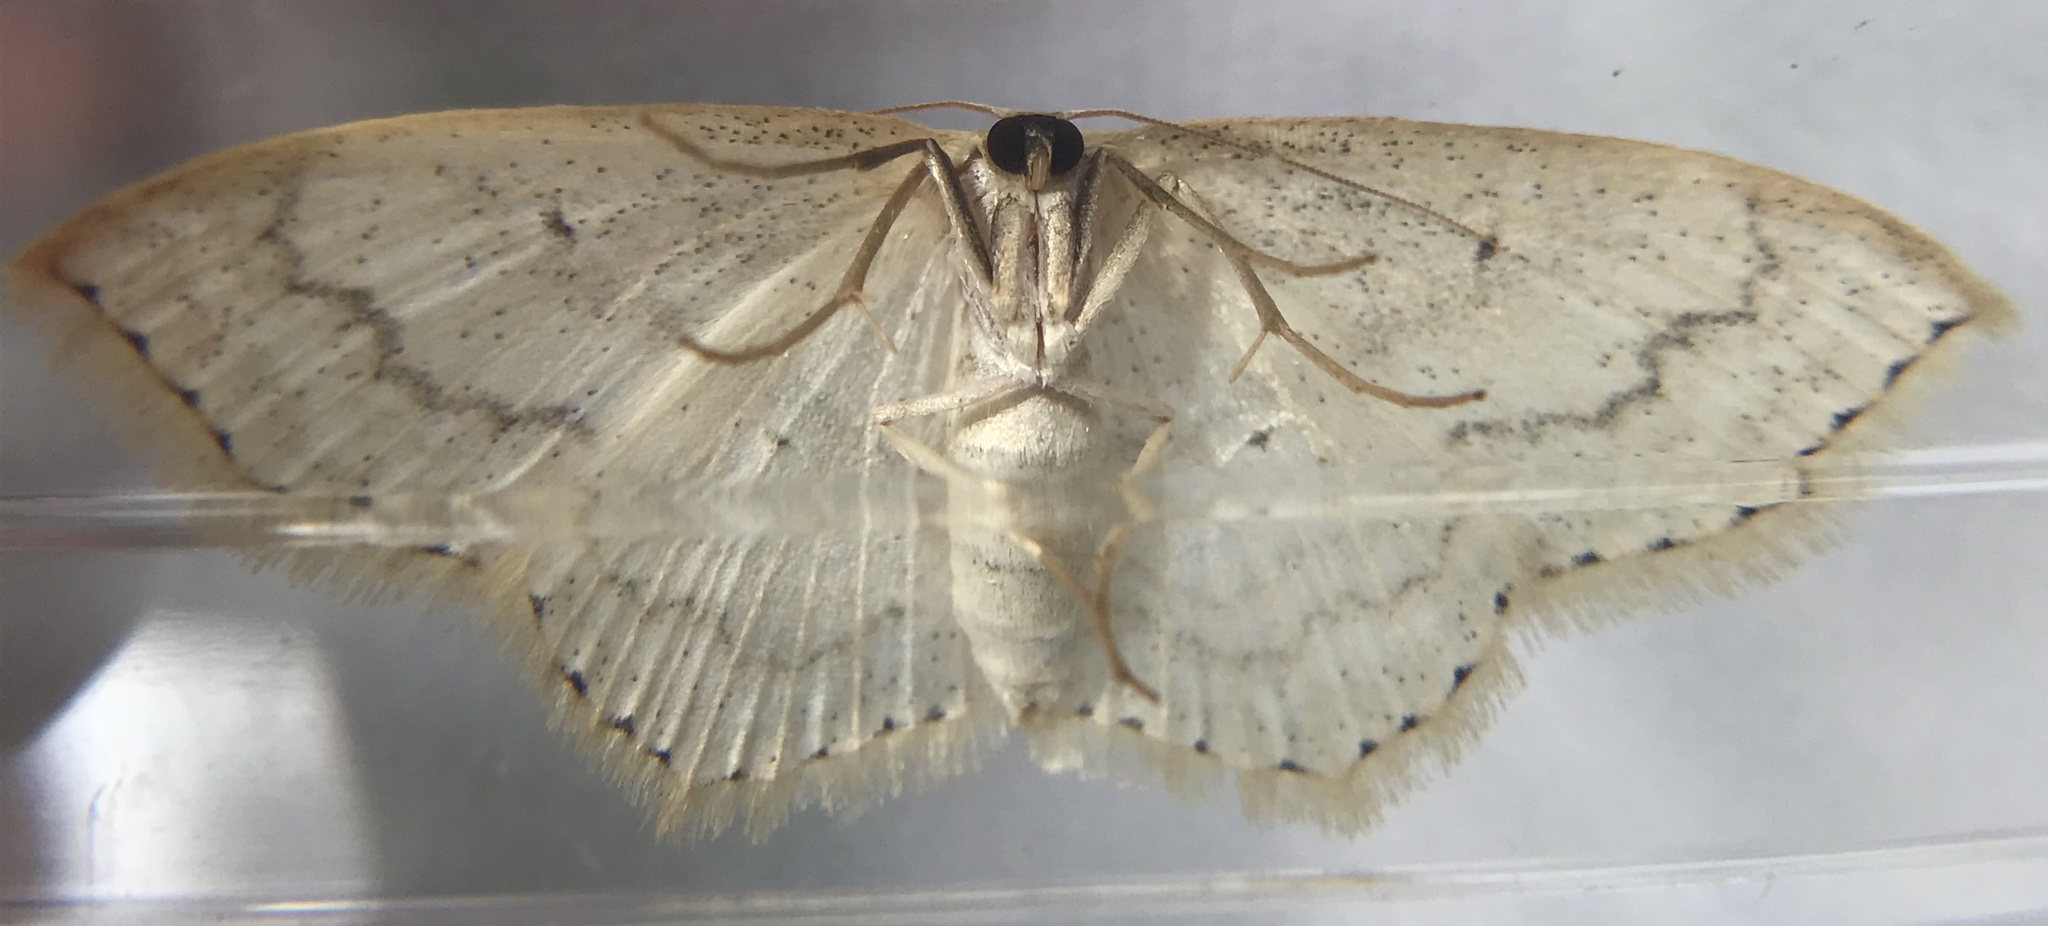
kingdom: Animalia
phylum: Arthropoda
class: Insecta
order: Lepidoptera
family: Geometridae
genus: Scopula
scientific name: Scopula limboundata
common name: Large lace border
